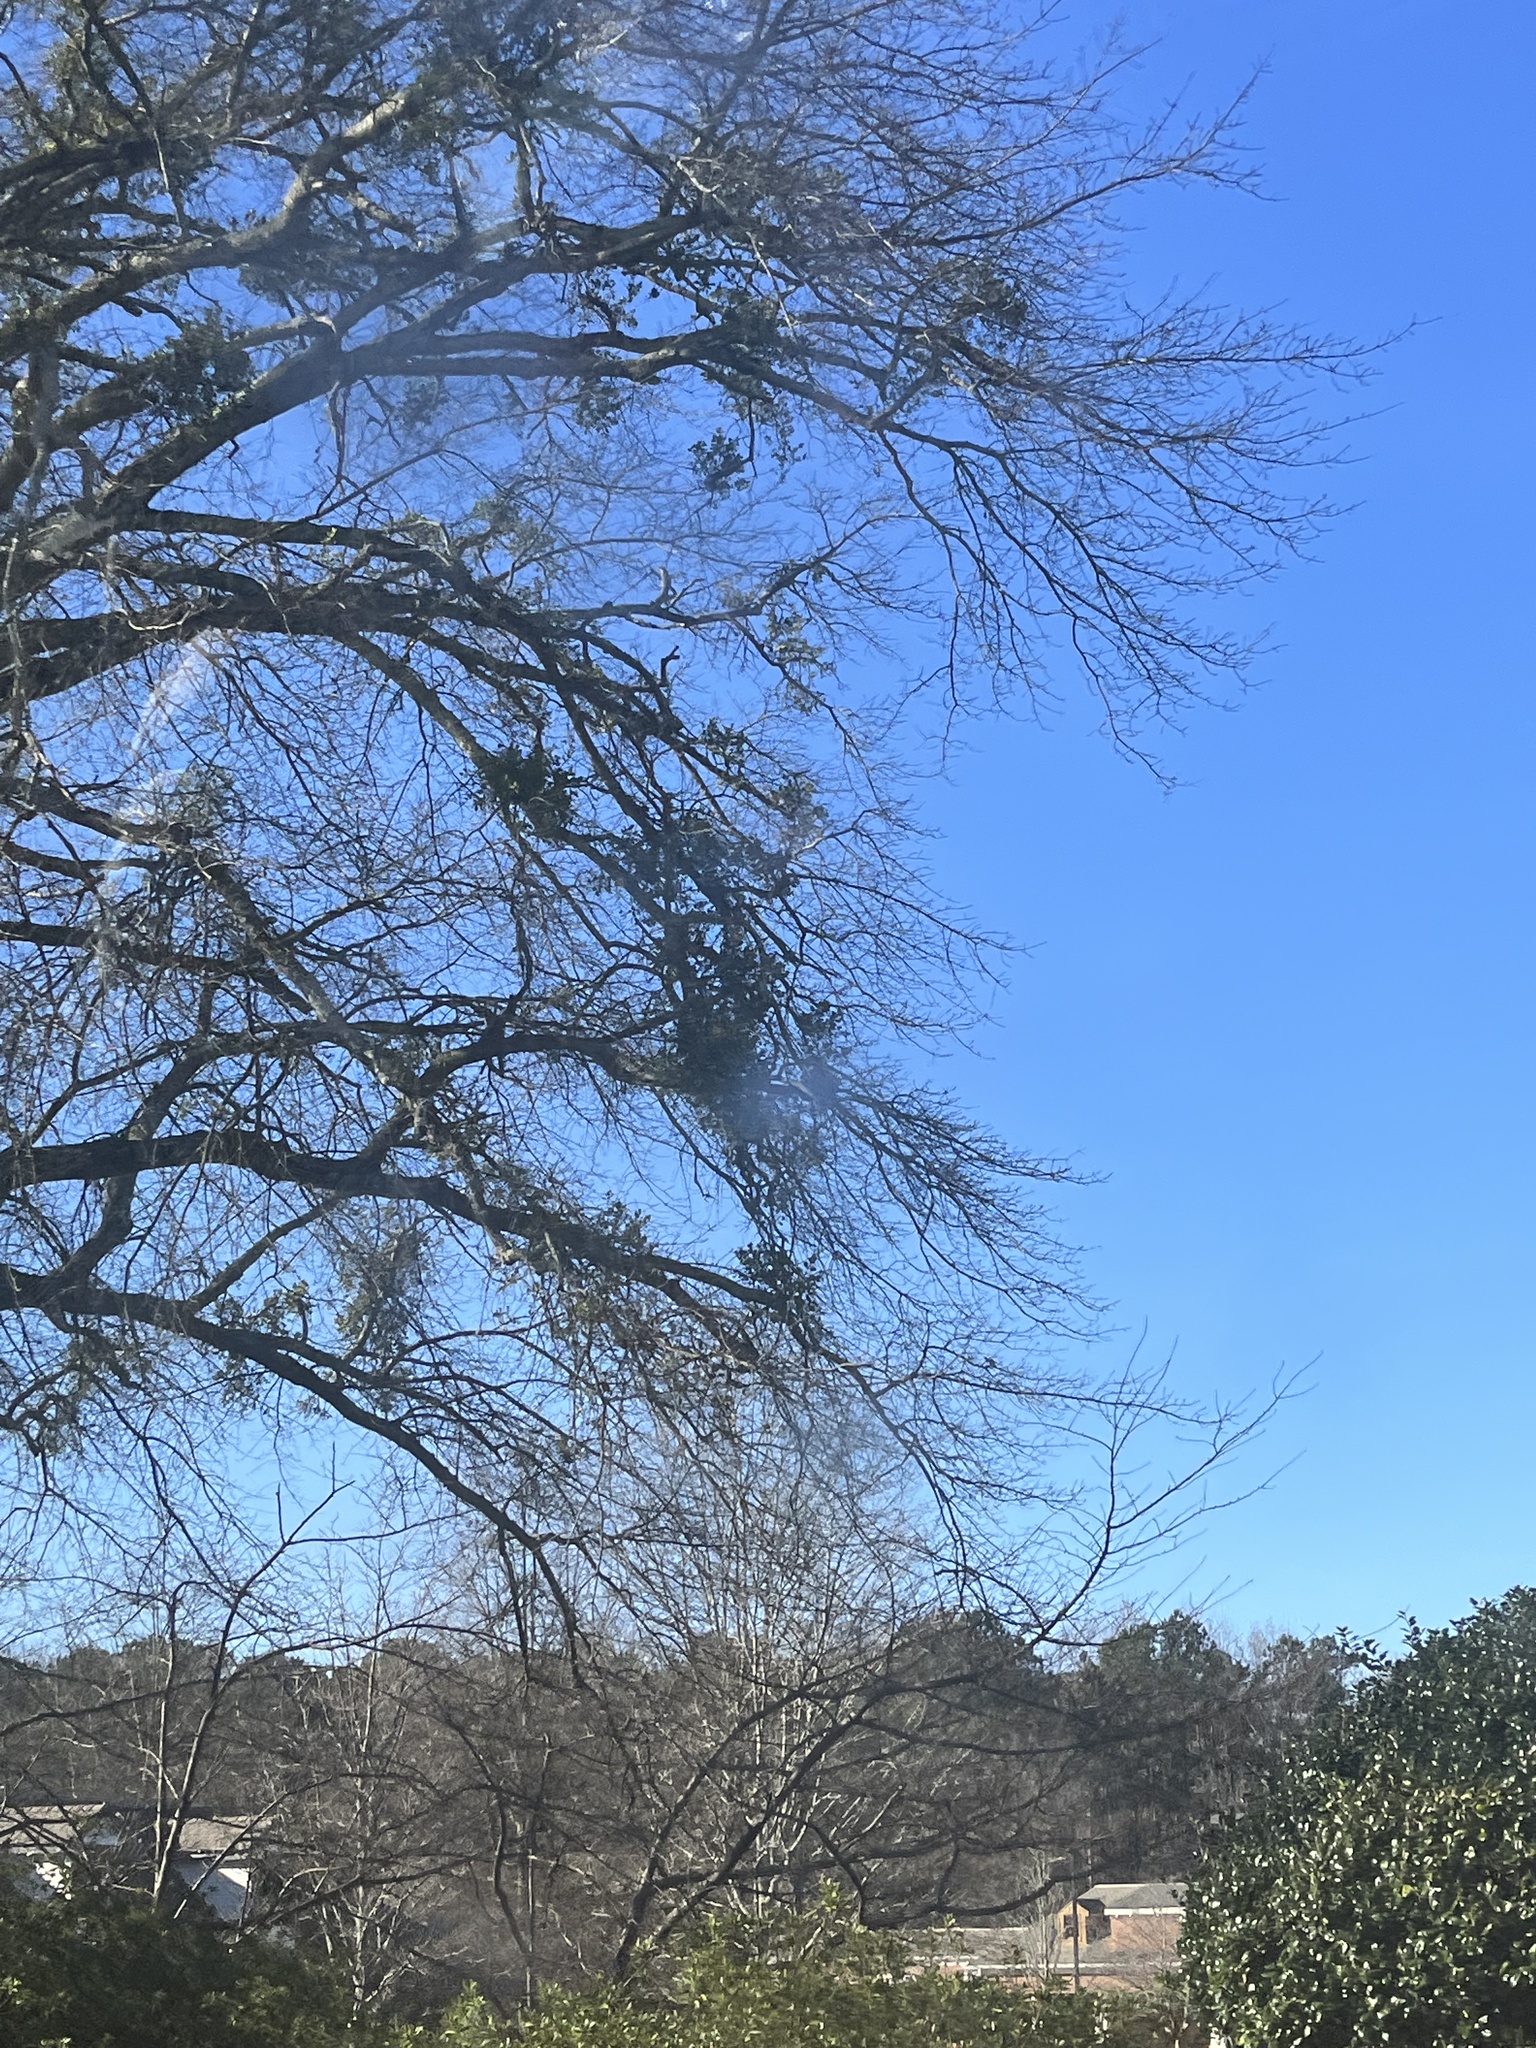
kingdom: Plantae
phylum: Tracheophyta
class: Magnoliopsida
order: Santalales
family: Viscaceae
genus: Phoradendron
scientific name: Phoradendron leucarpum
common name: Pacific mistletoe
